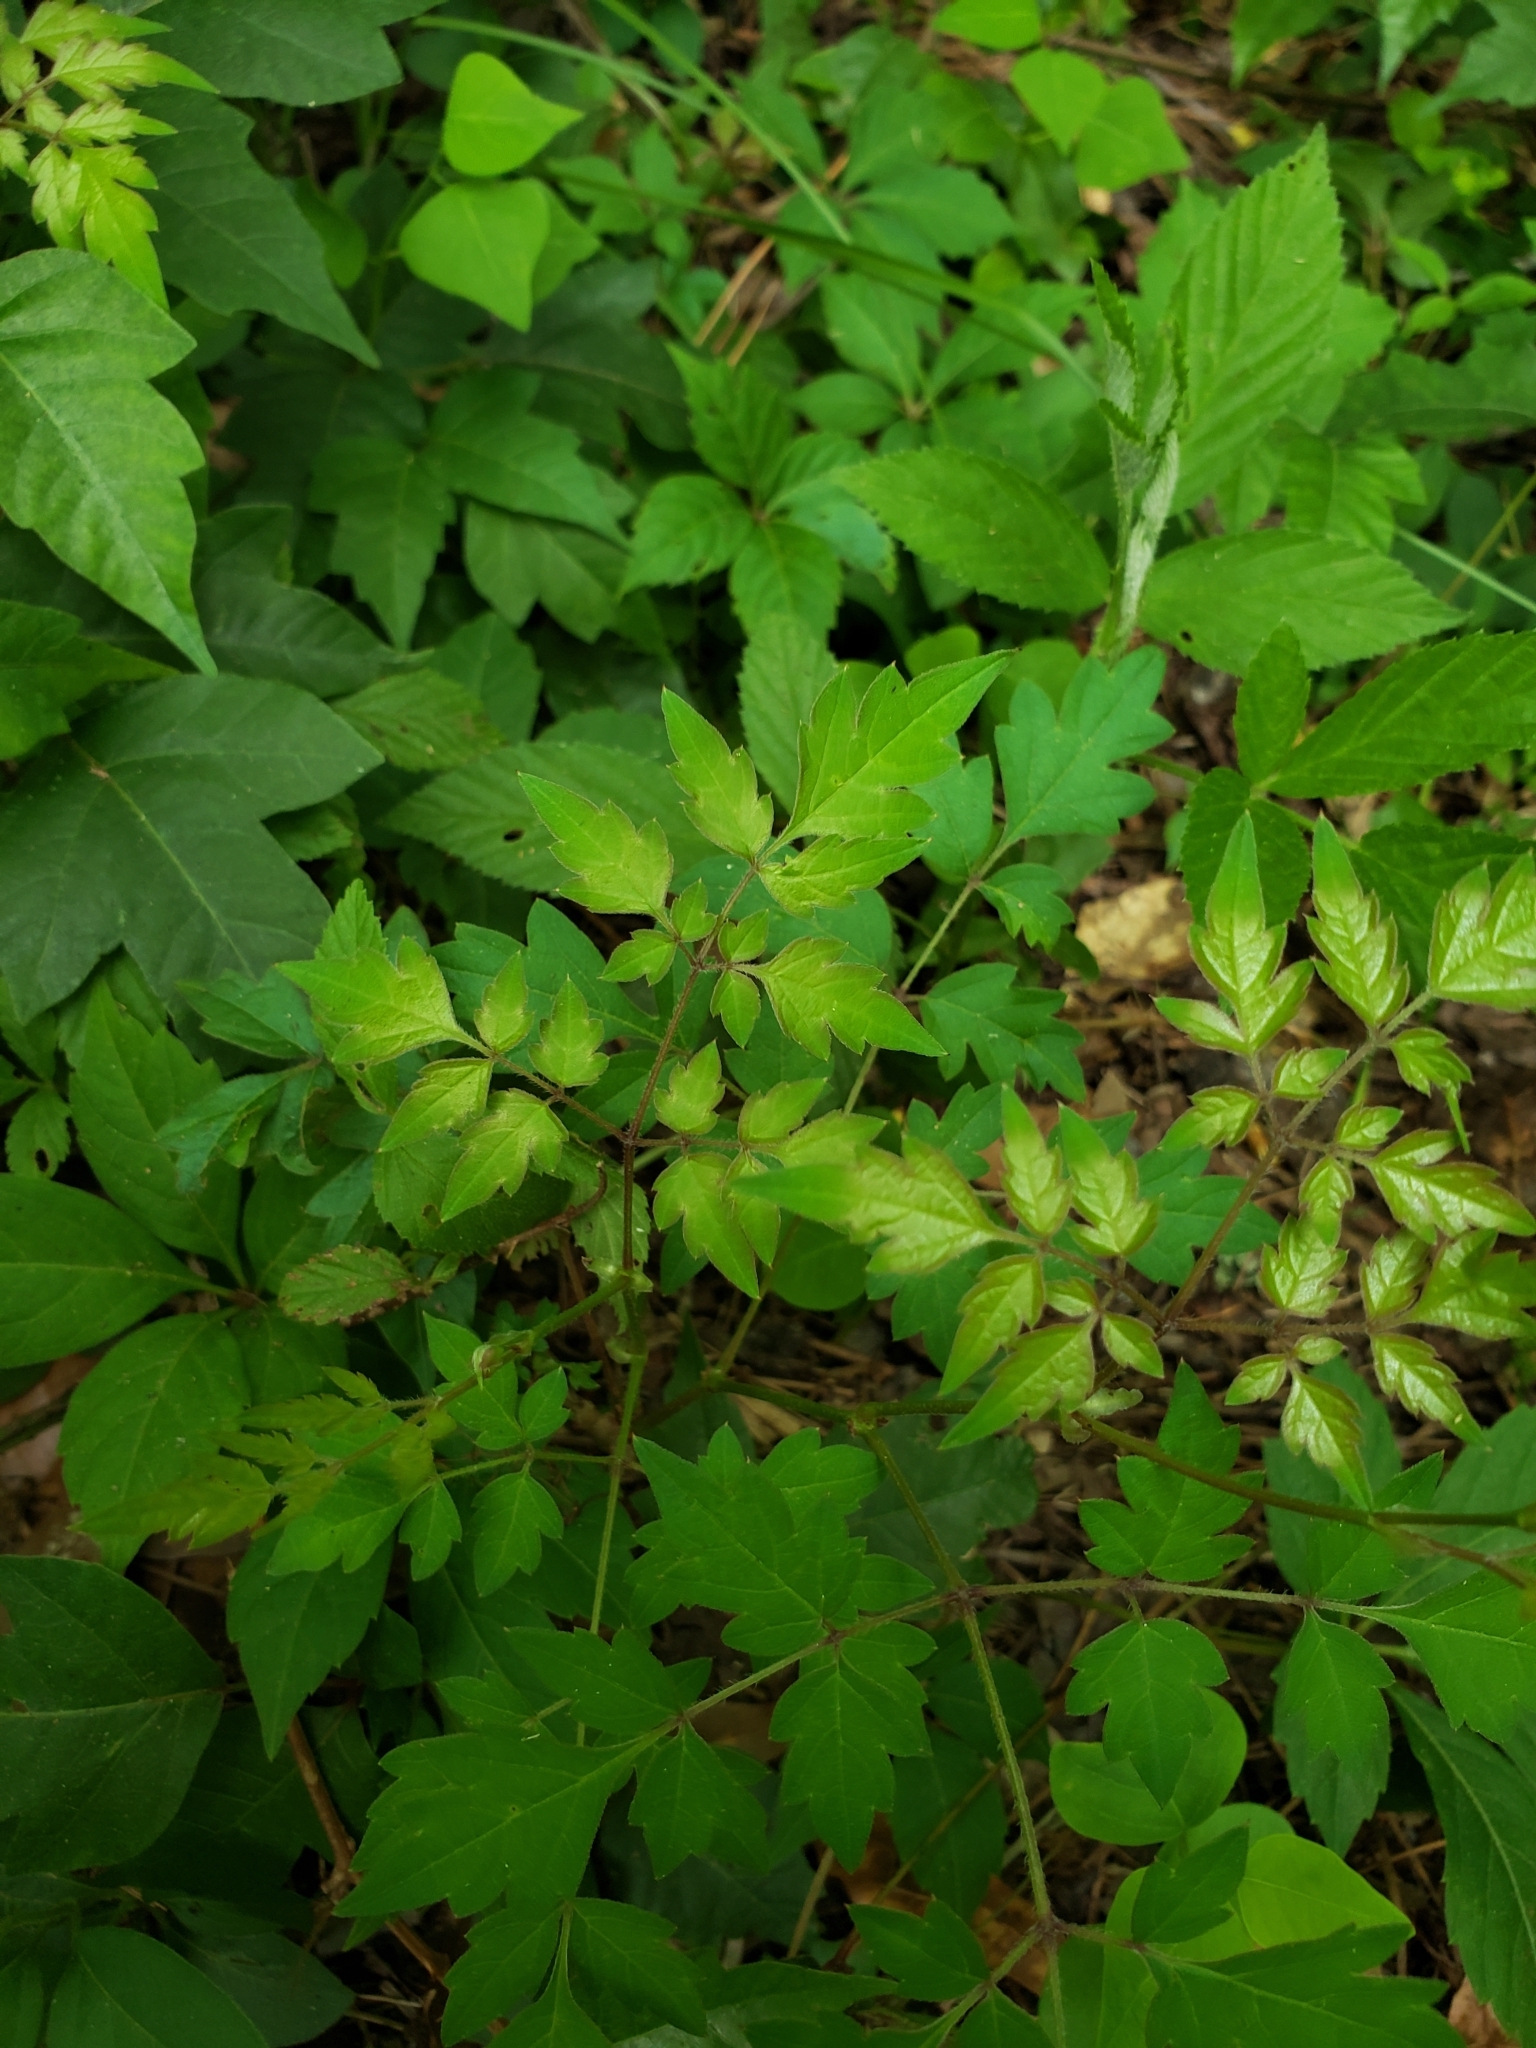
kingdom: Plantae
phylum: Tracheophyta
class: Magnoliopsida
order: Vitales
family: Vitaceae
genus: Nekemias
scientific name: Nekemias arborea
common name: Peppervine
